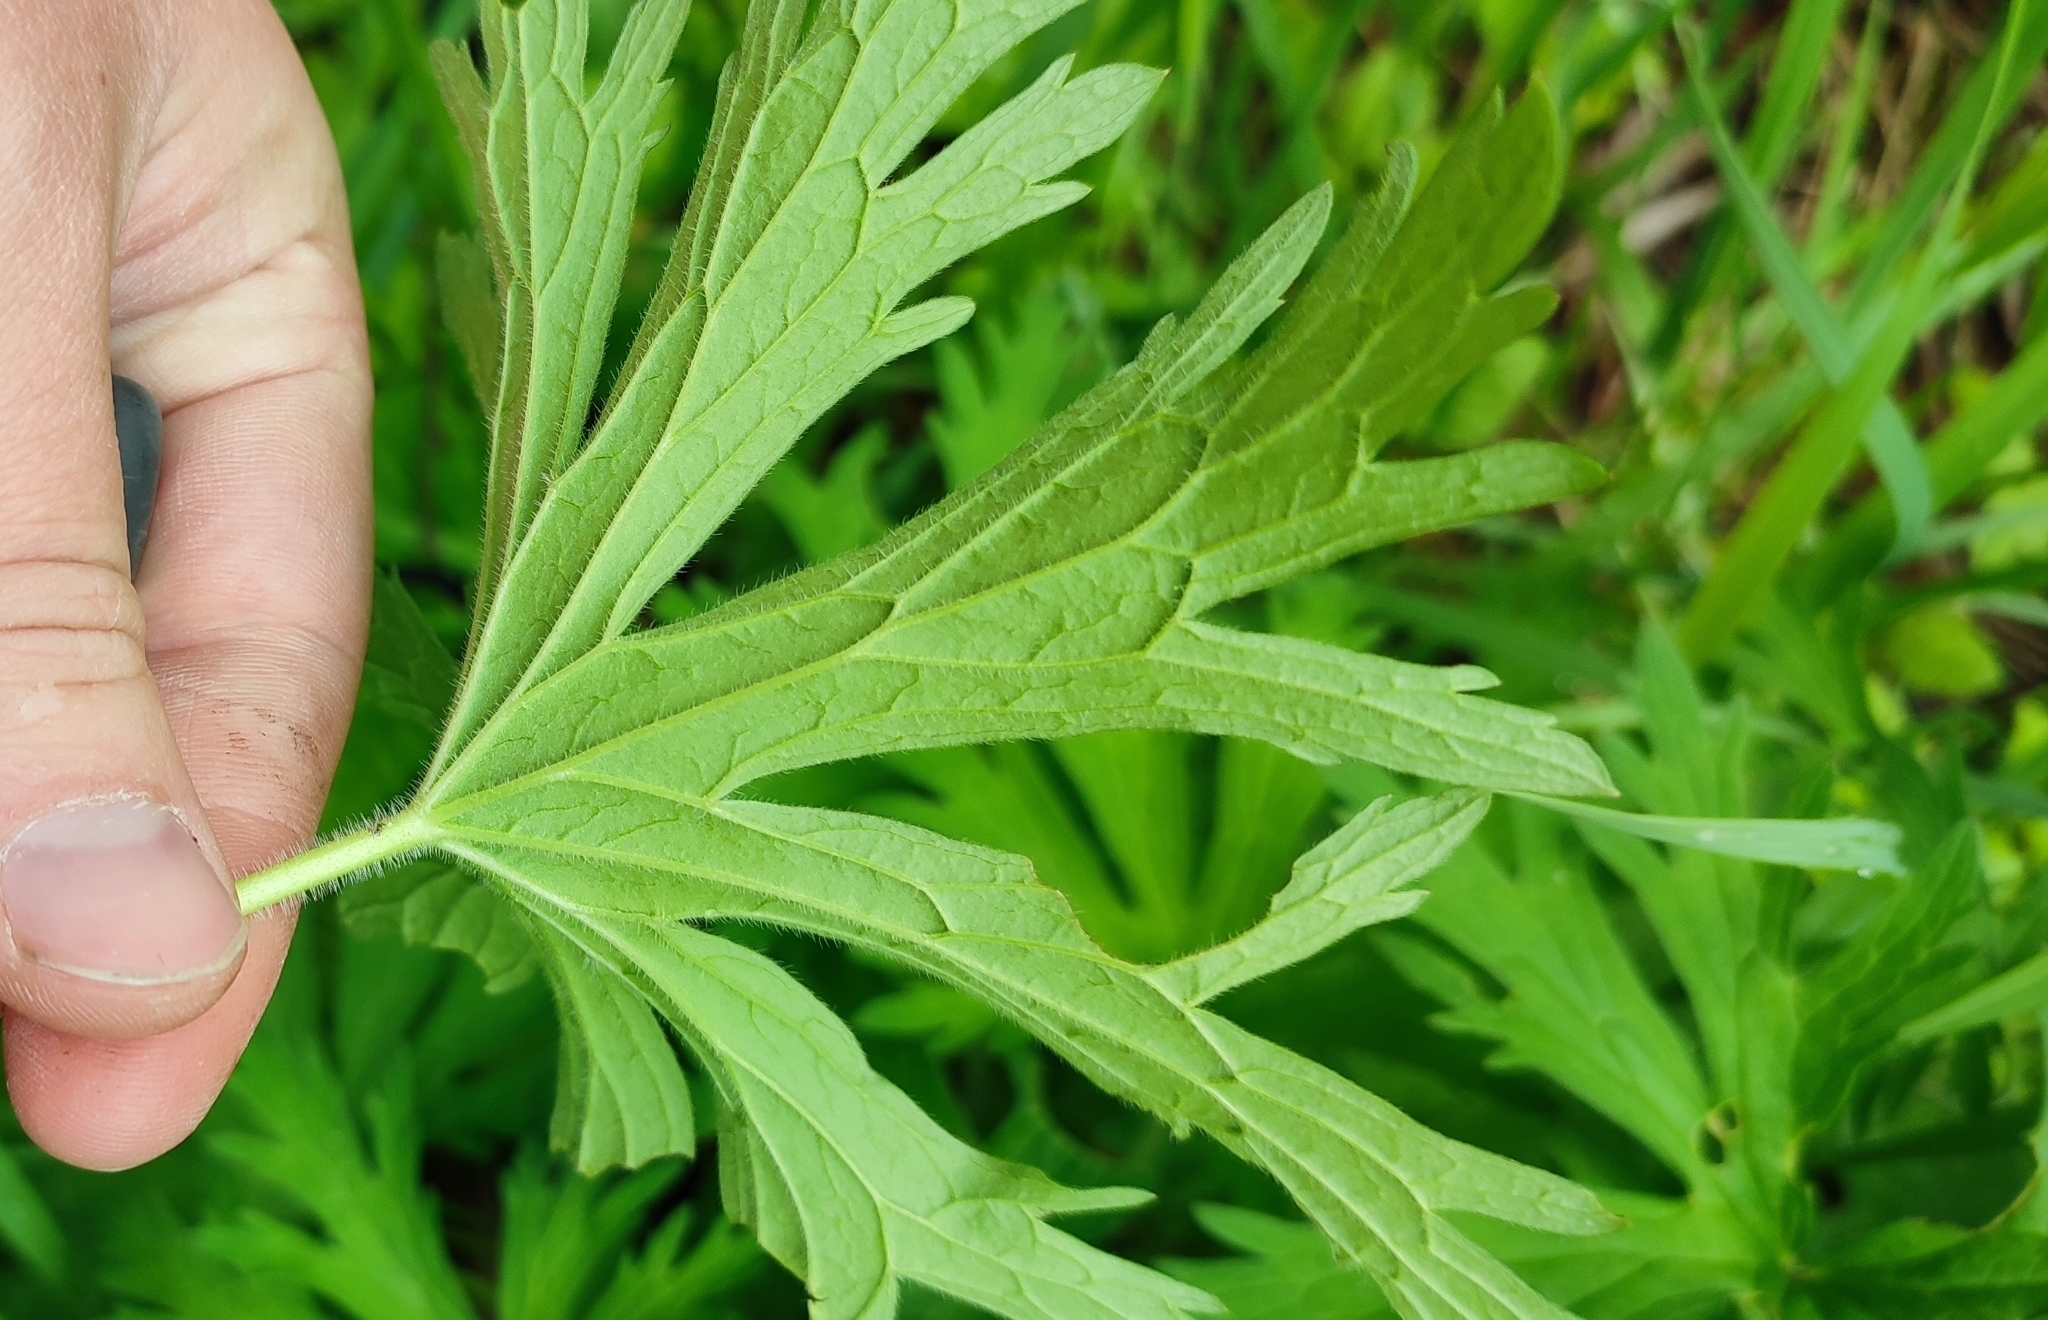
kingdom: Plantae
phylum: Tracheophyta
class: Magnoliopsida
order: Geraniales
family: Geraniaceae
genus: Geranium
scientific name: Geranium pratense
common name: Meadow crane's-bill
